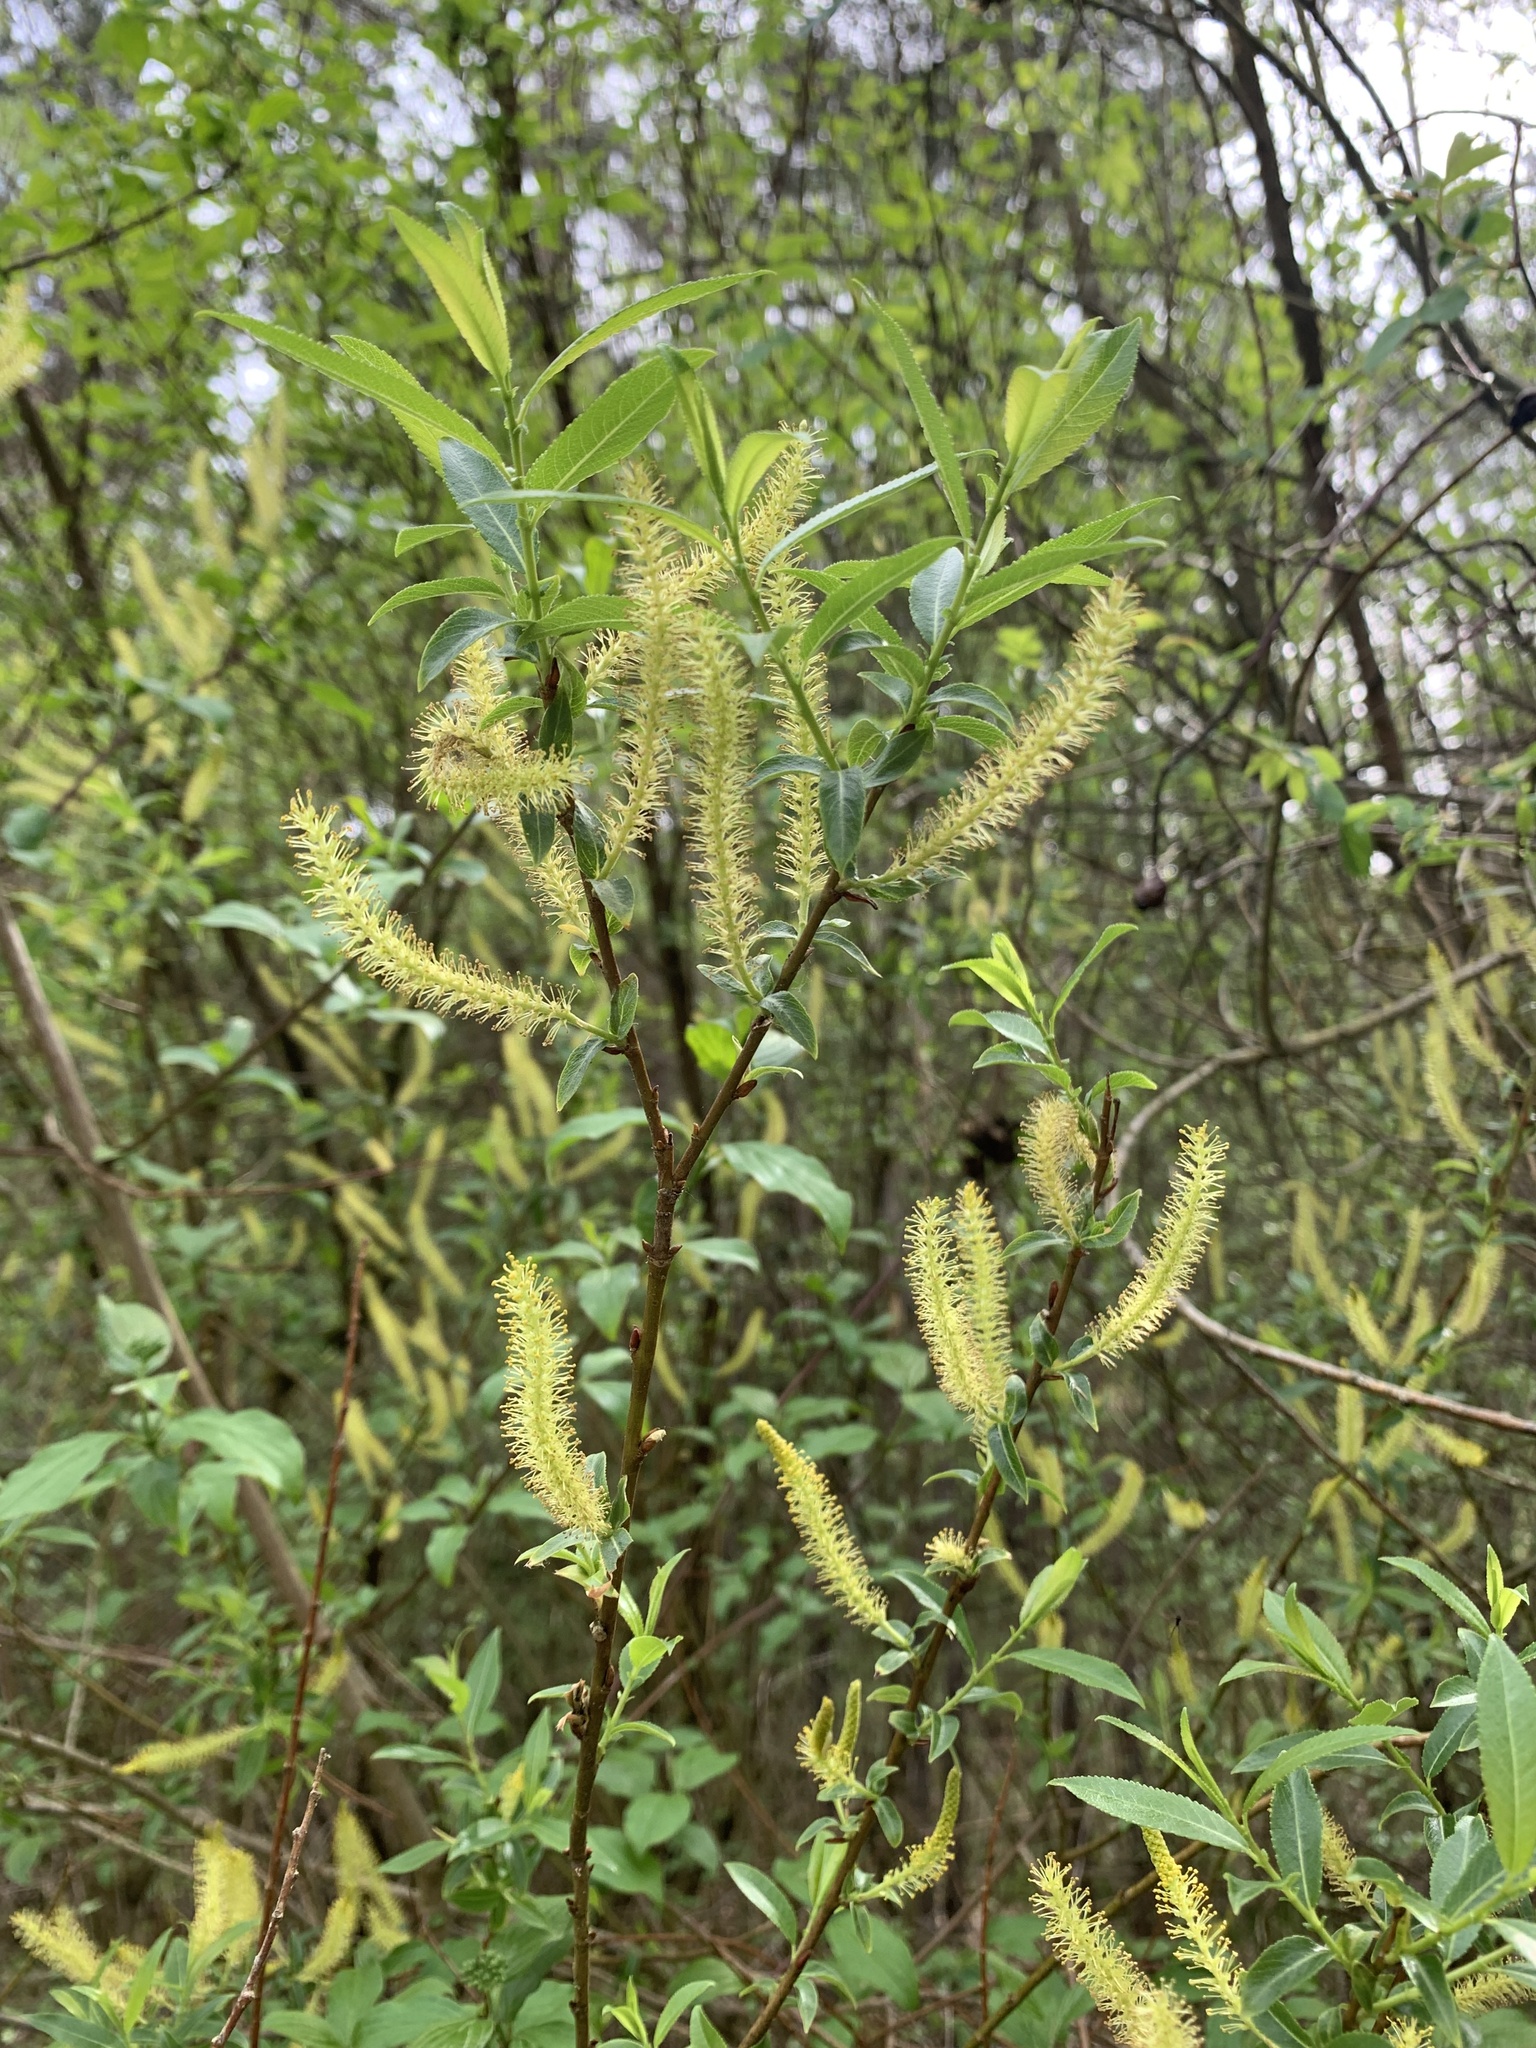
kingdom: Plantae
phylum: Tracheophyta
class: Magnoliopsida
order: Malpighiales
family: Salicaceae
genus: Salix
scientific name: Salix triandra
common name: Almond willow
